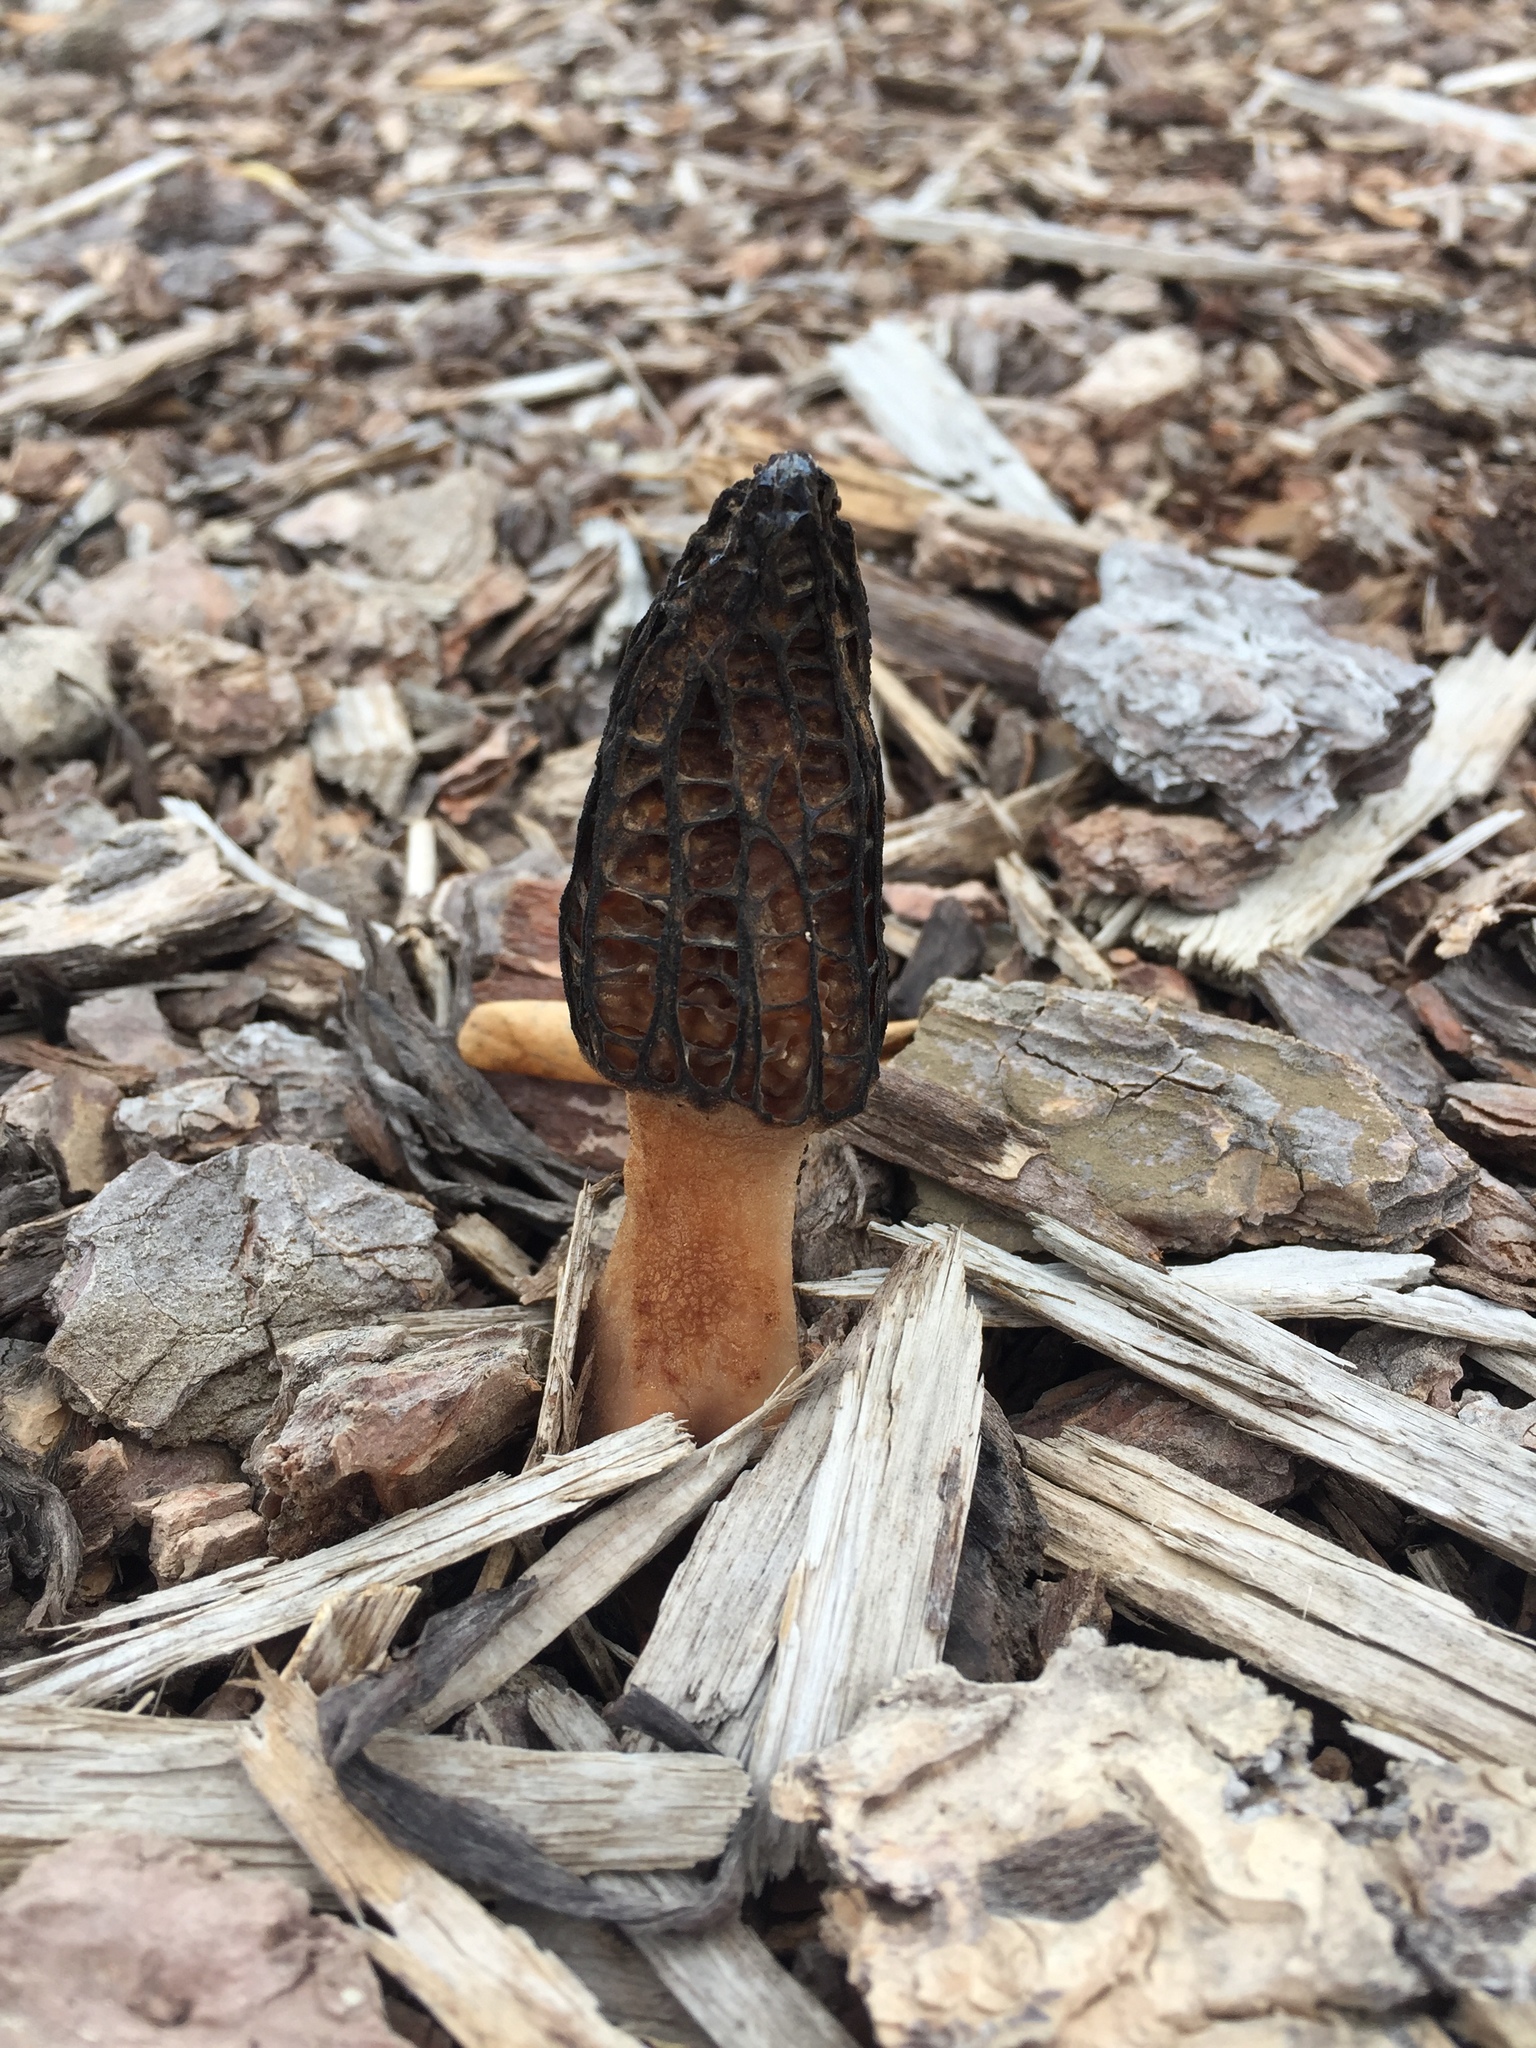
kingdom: Fungi
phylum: Ascomycota
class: Pezizomycetes
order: Pezizales
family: Morchellaceae
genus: Morchella
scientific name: Morchella importuna
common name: Landscaping black morel
